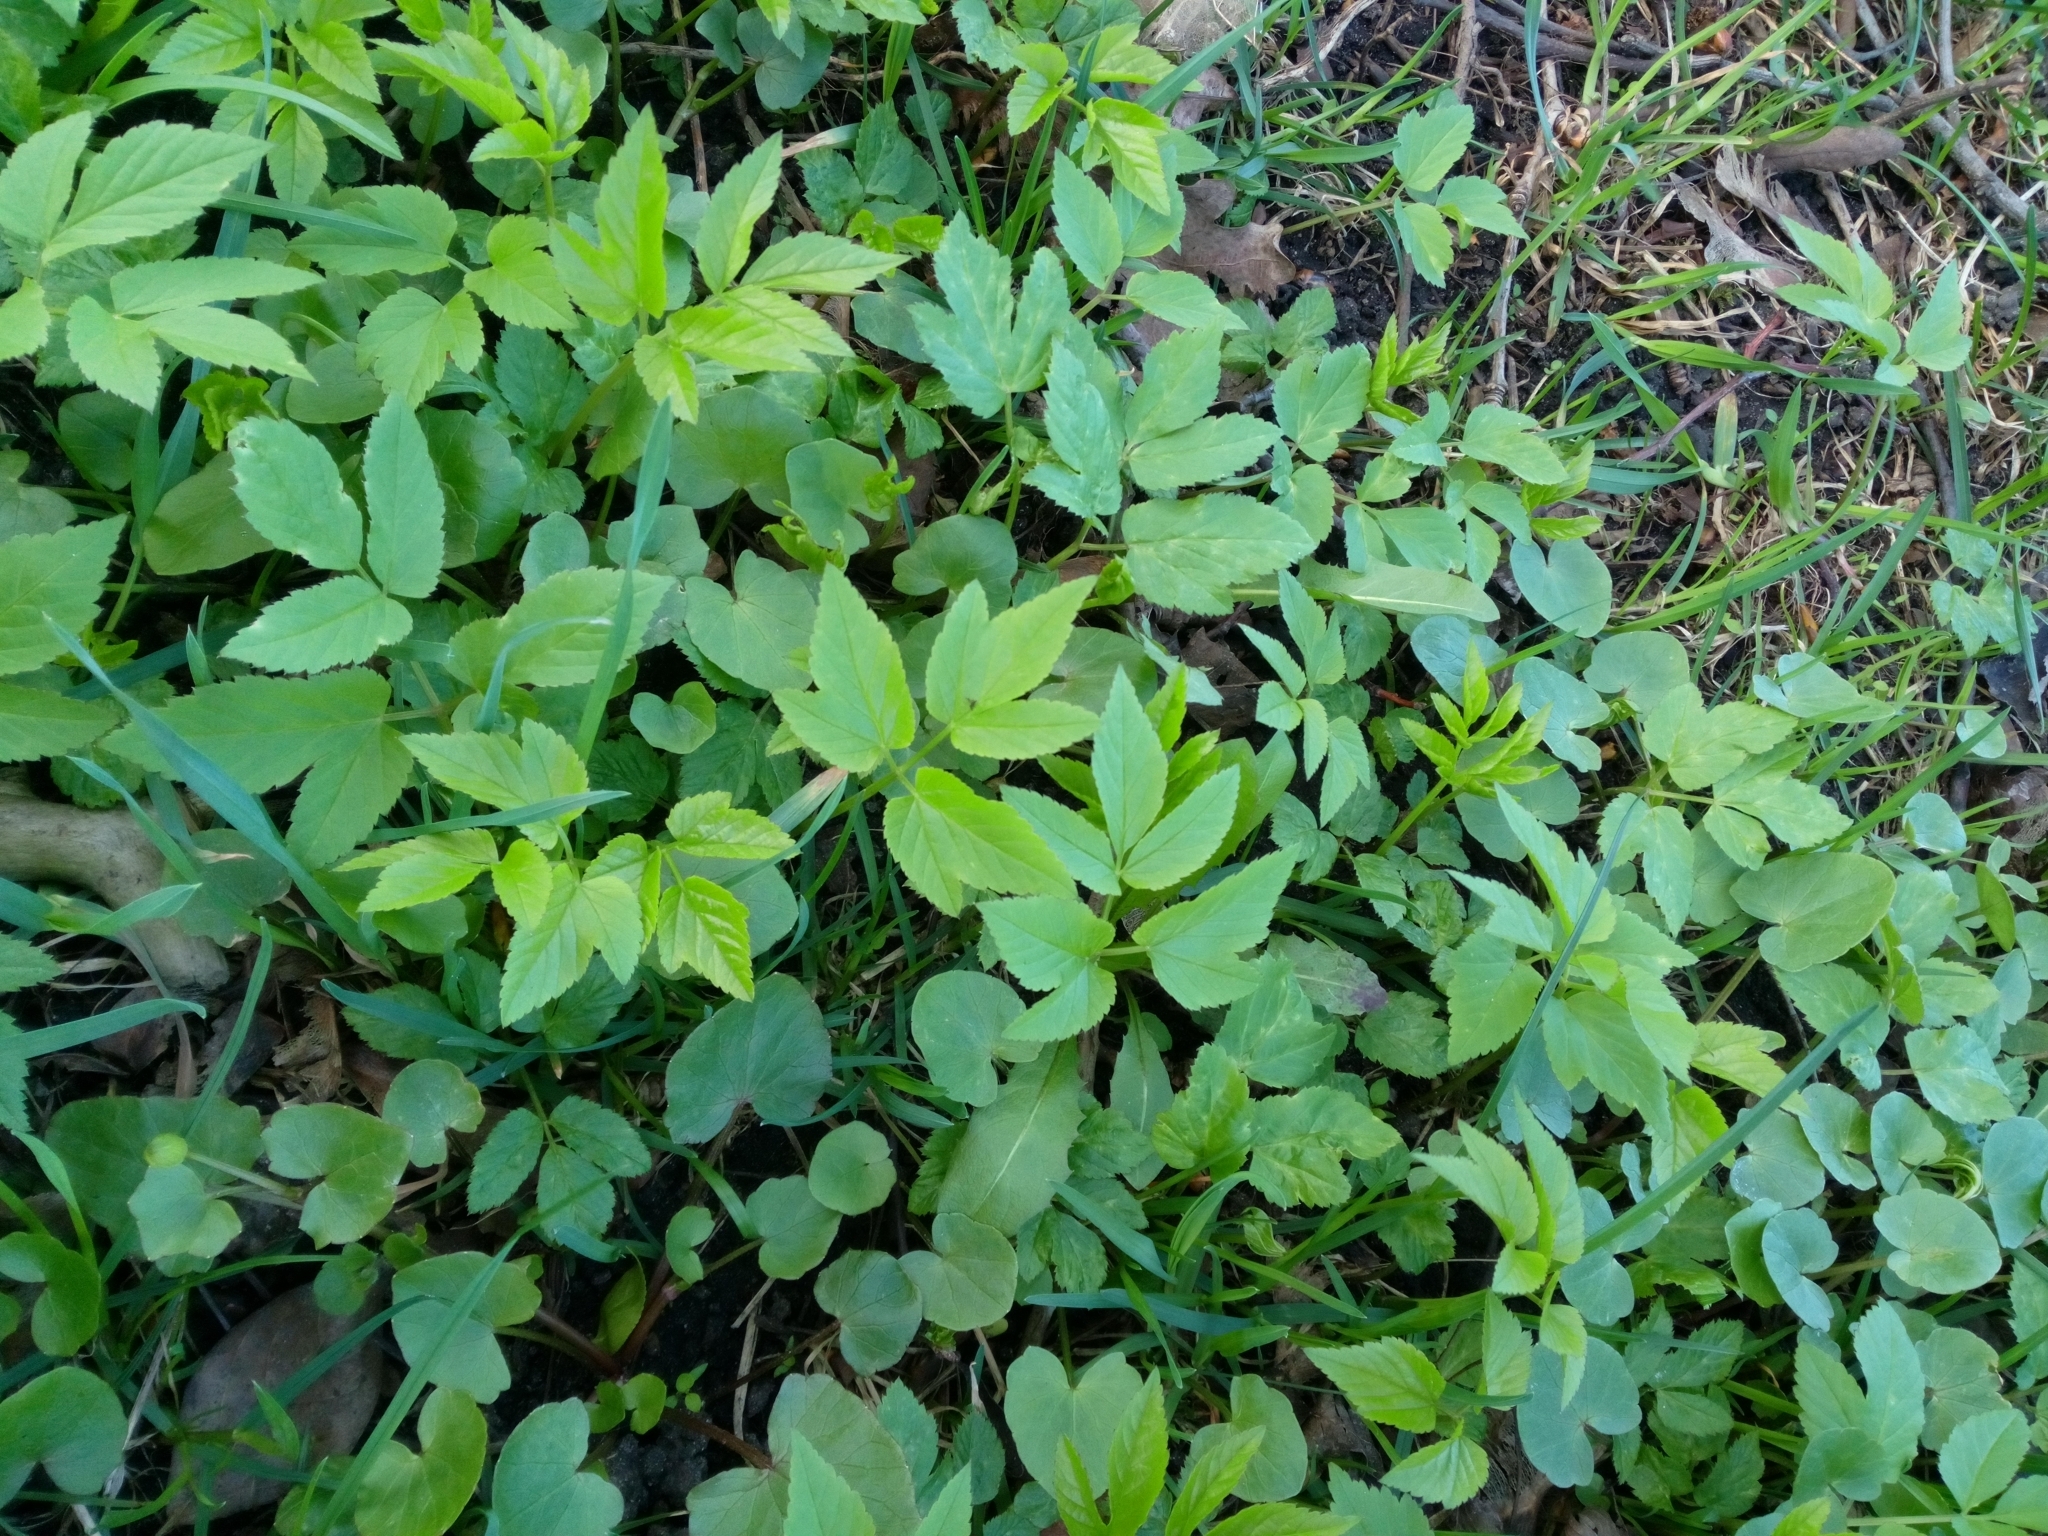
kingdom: Plantae
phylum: Tracheophyta
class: Magnoliopsida
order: Apiales
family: Apiaceae
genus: Aegopodium
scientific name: Aegopodium podagraria
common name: Ground-elder
